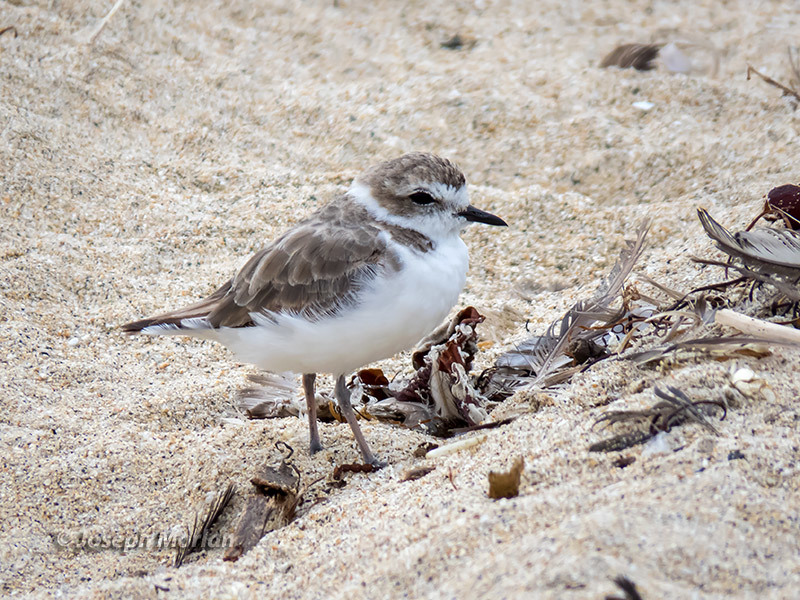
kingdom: Animalia
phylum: Chordata
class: Aves
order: Charadriiformes
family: Charadriidae
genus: Anarhynchus
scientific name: Anarhynchus
